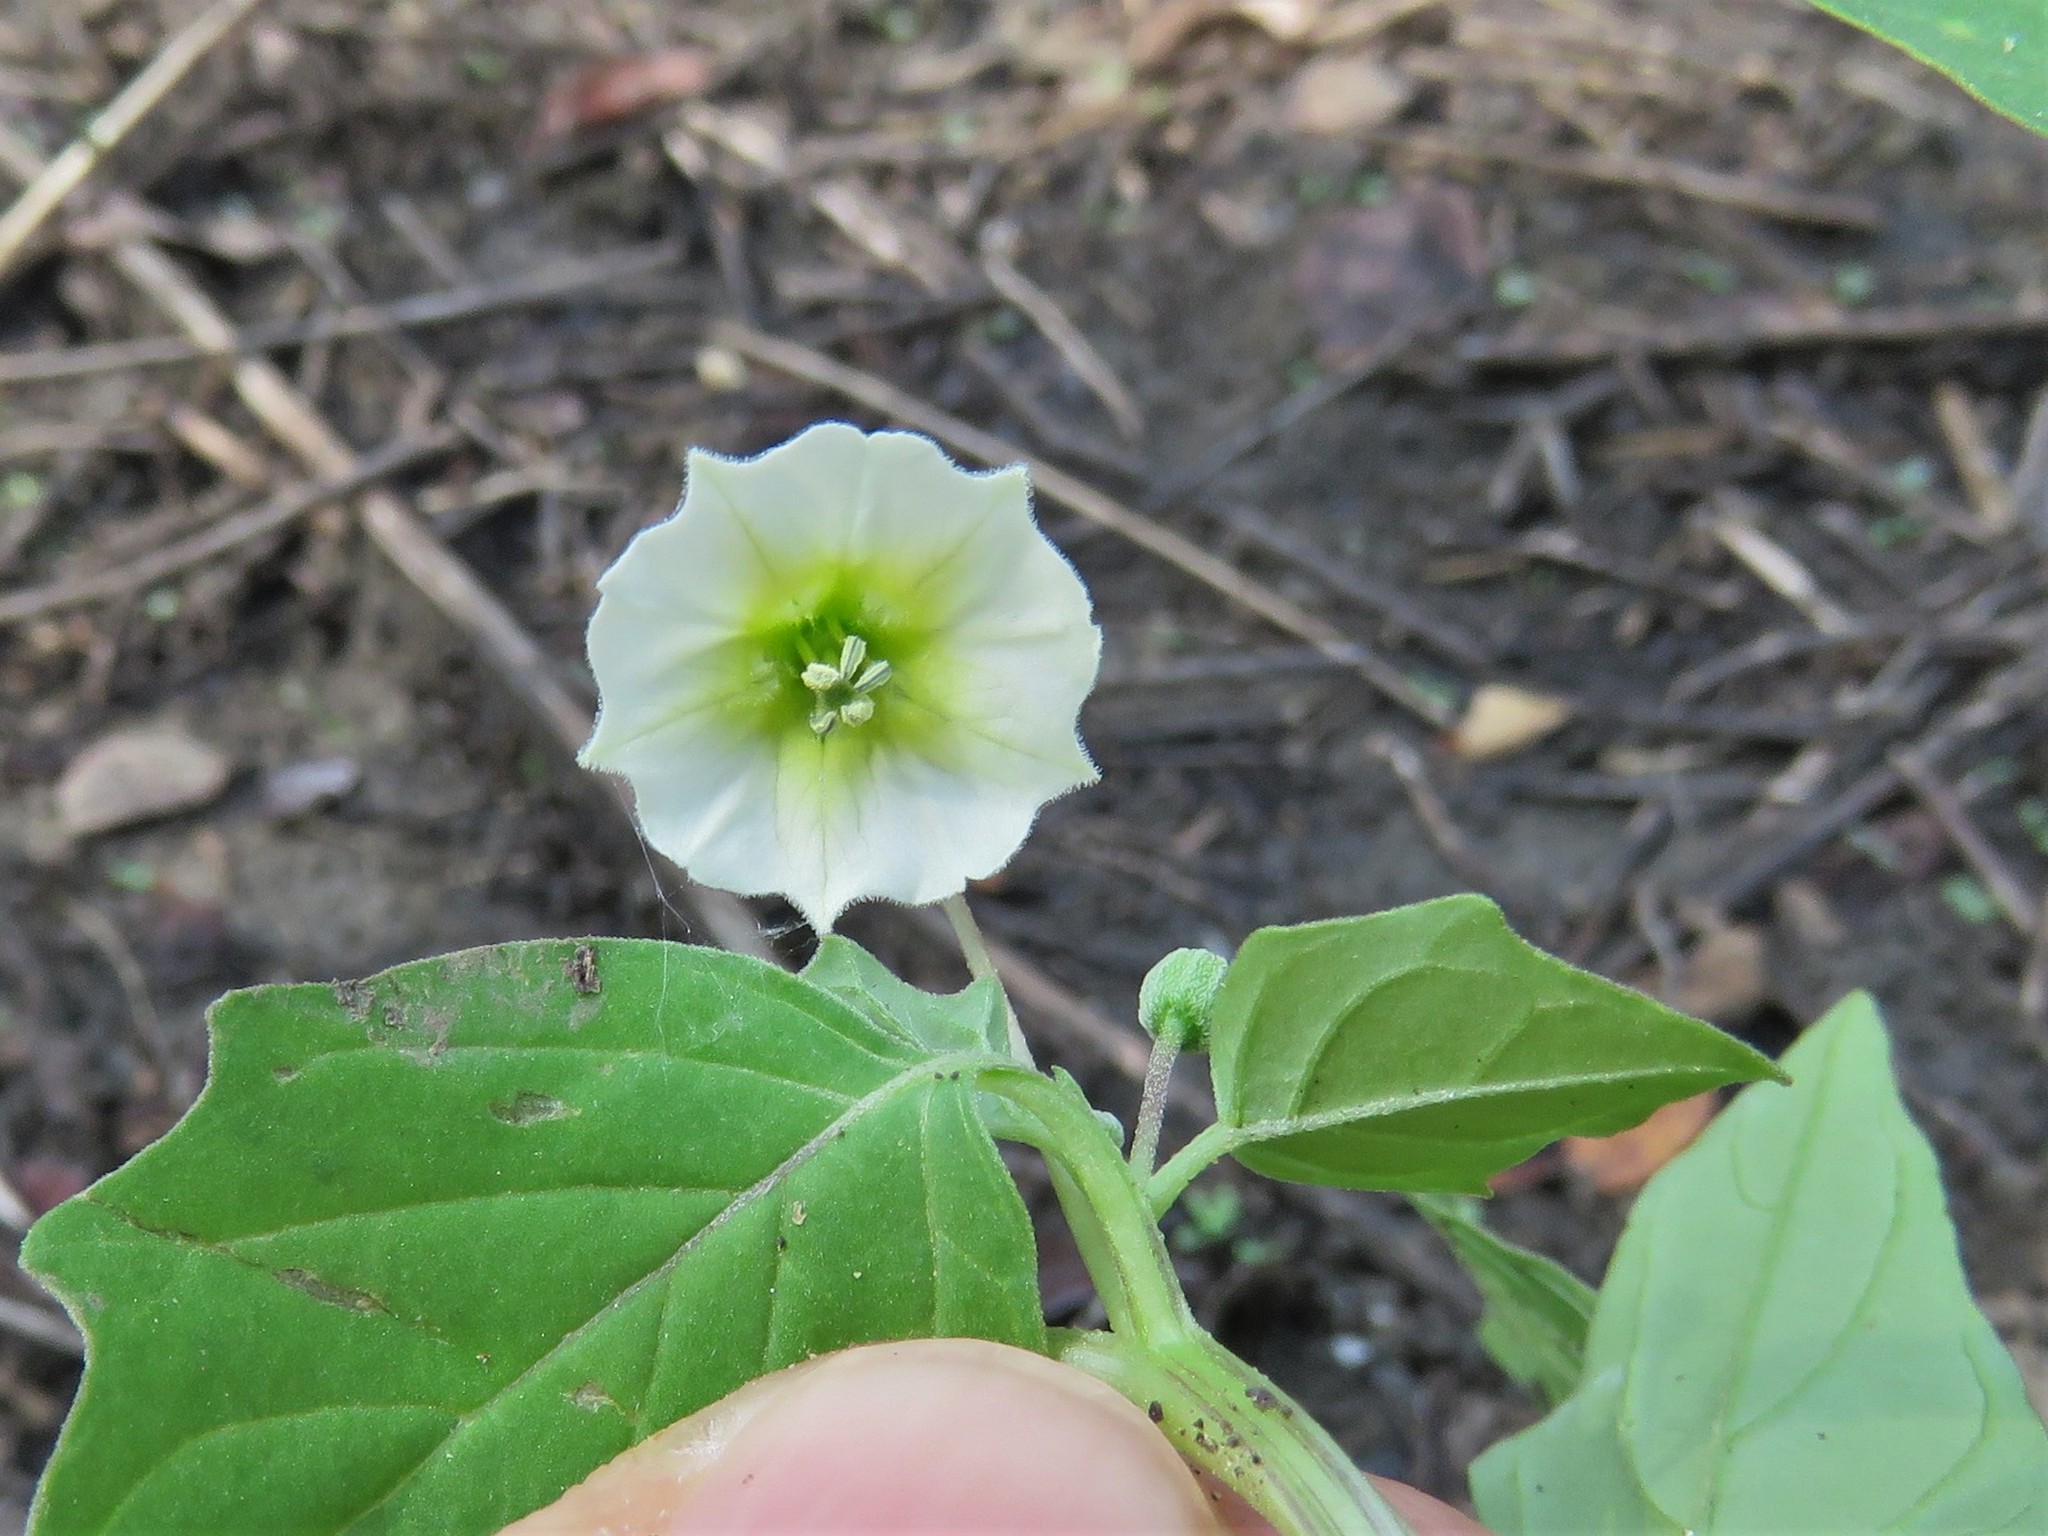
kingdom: Plantae
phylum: Tracheophyta
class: Magnoliopsida
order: Solanales
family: Solanaceae
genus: Physalis
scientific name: Physalis angulata
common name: Angular winter-cherry
